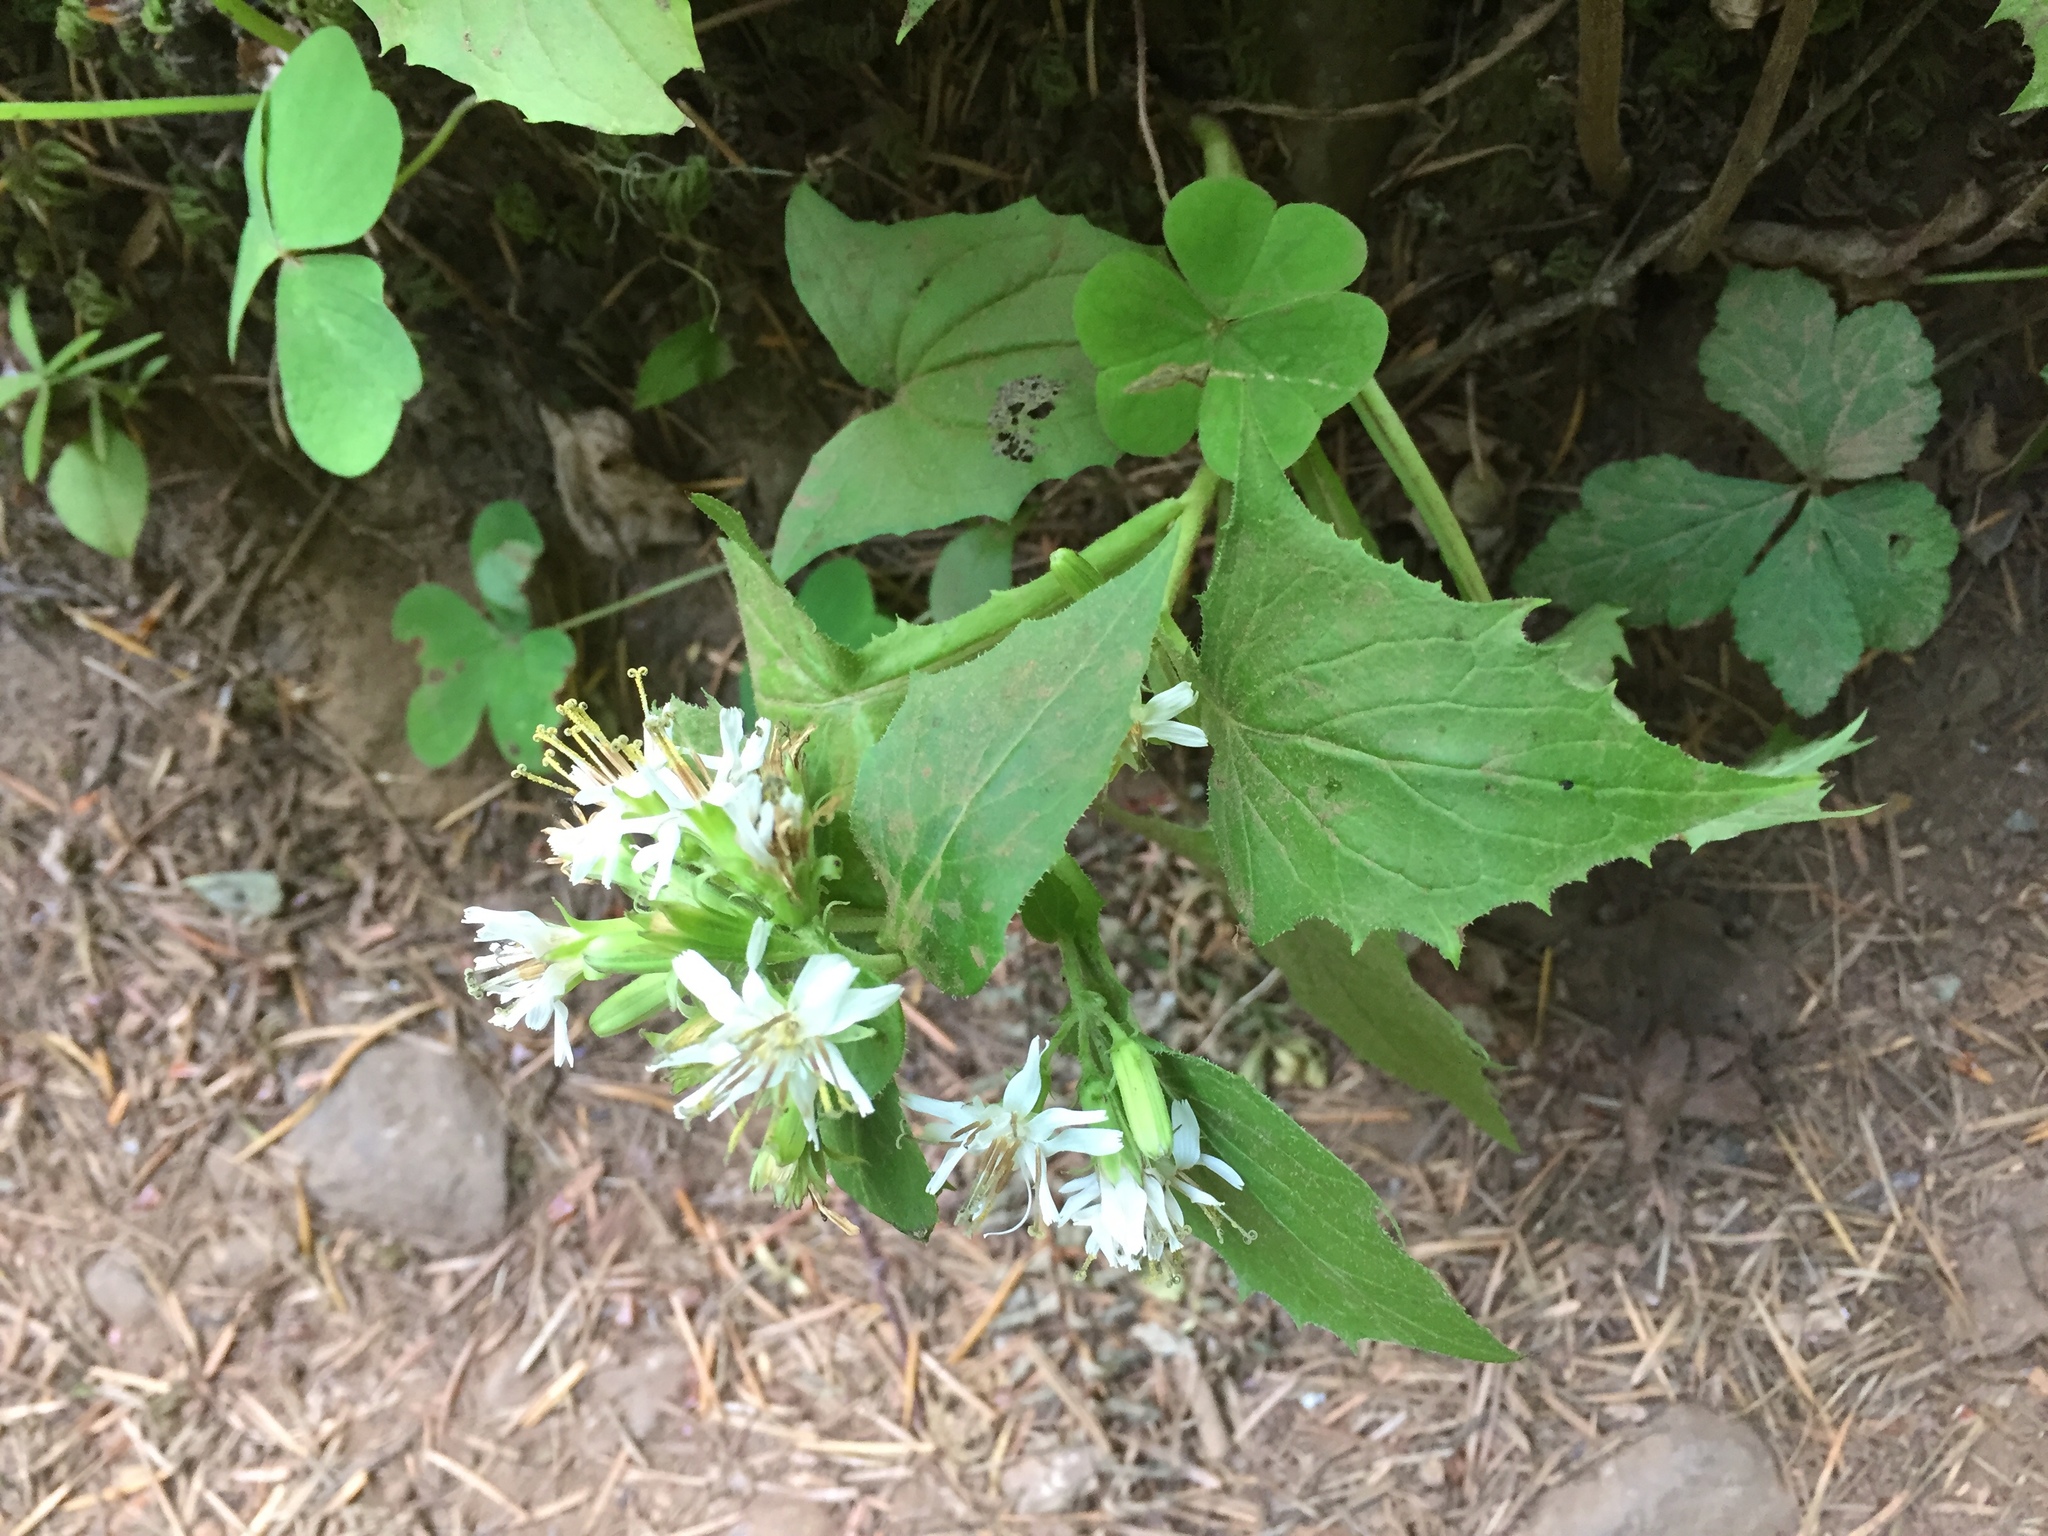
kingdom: Plantae
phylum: Tracheophyta
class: Magnoliopsida
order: Asterales
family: Asteraceae
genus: Nabalus
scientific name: Nabalus hastatus
